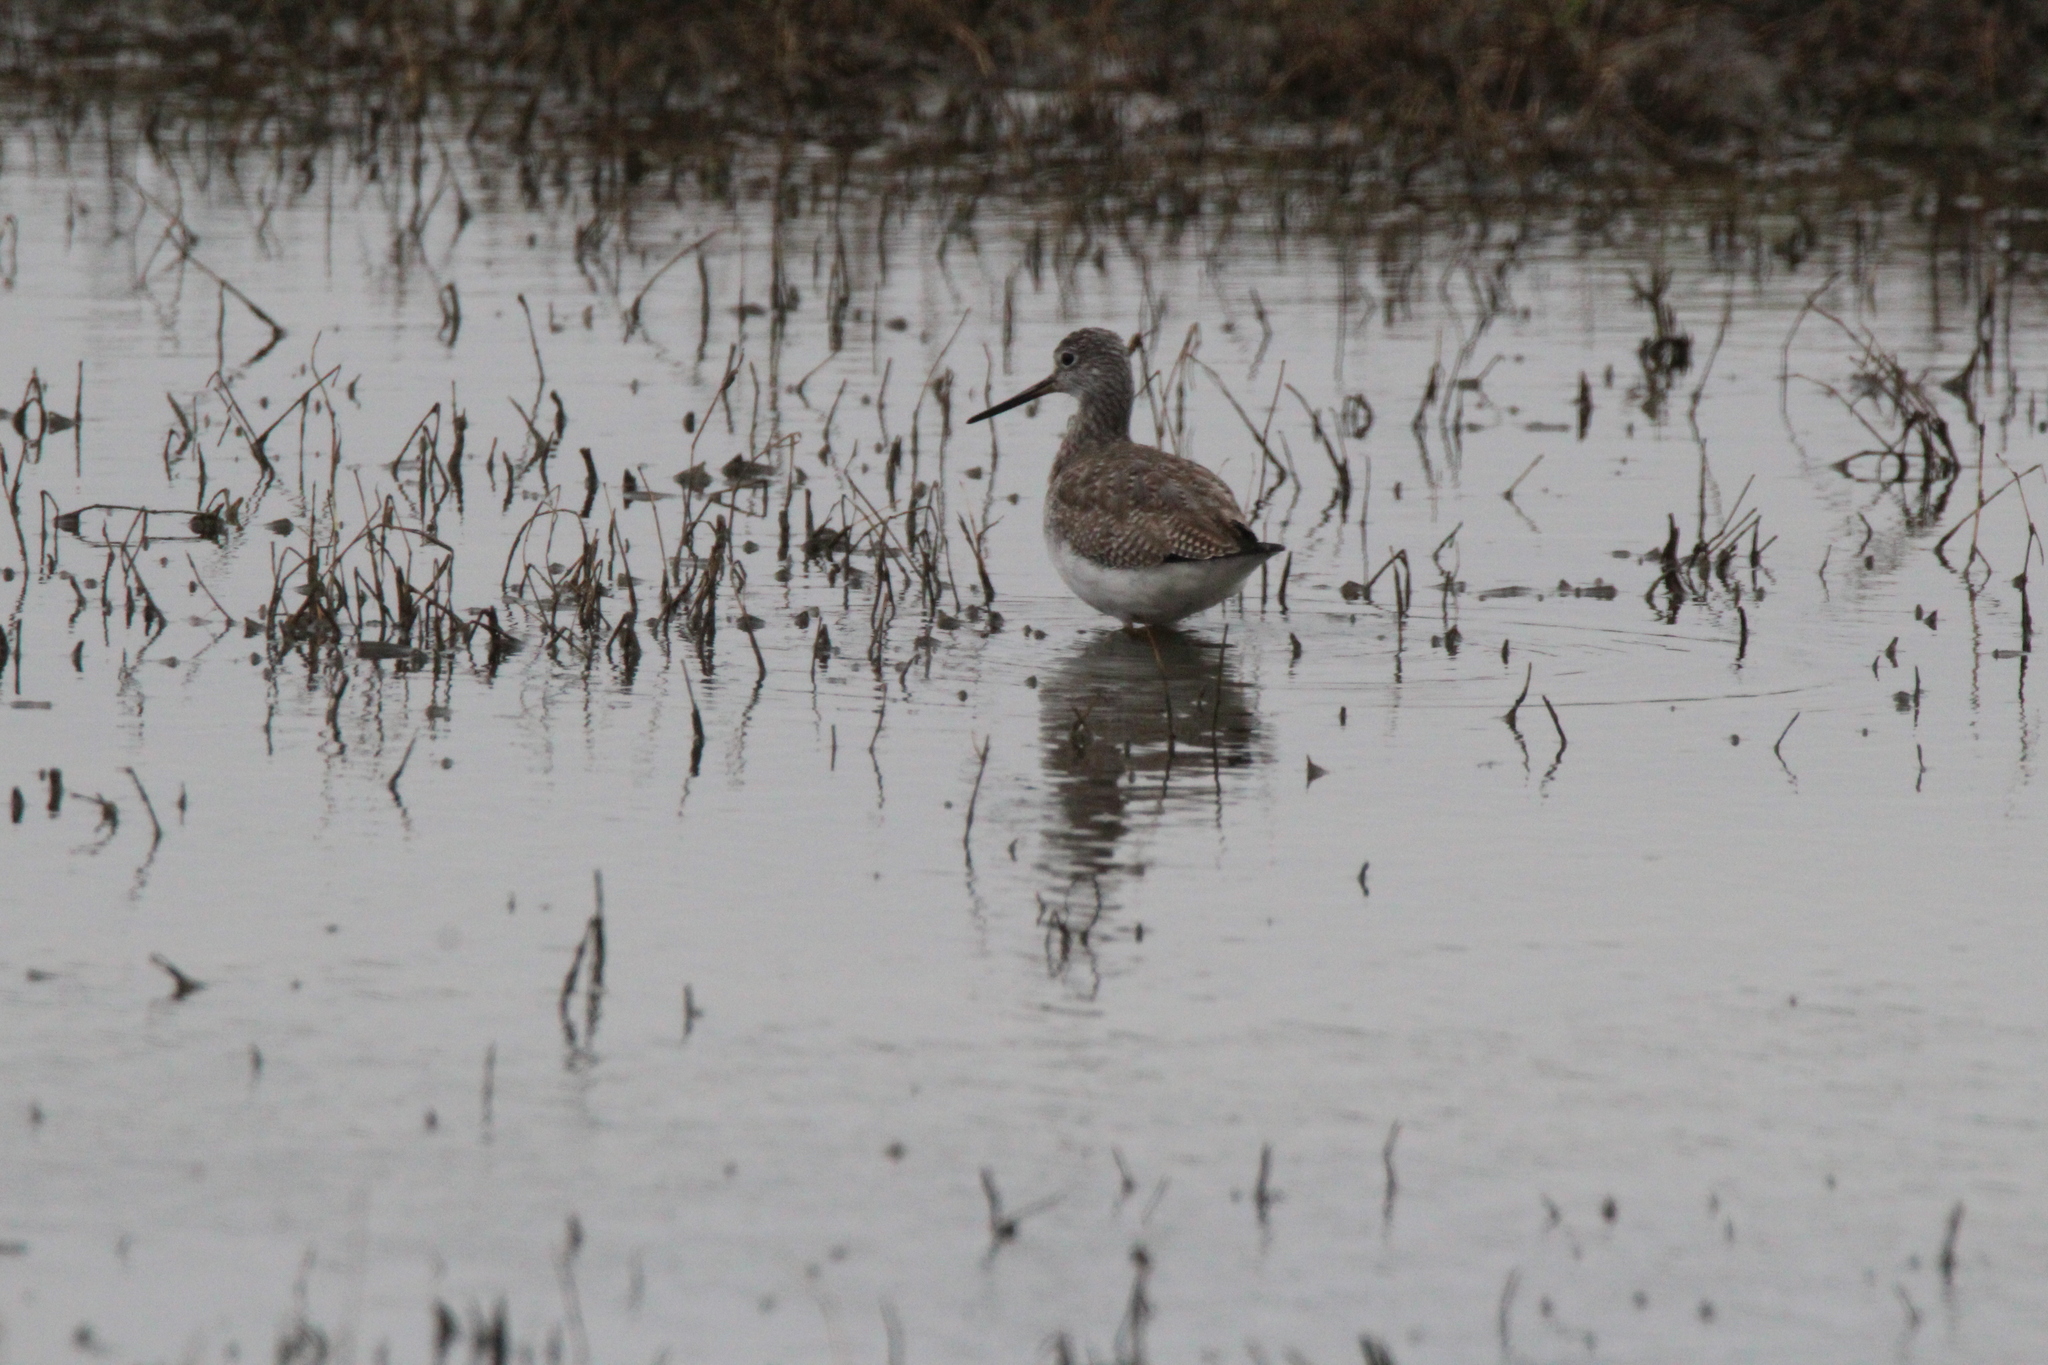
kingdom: Animalia
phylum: Chordata
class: Aves
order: Charadriiformes
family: Scolopacidae
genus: Tringa
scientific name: Tringa melanoleuca
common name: Greater yellowlegs
